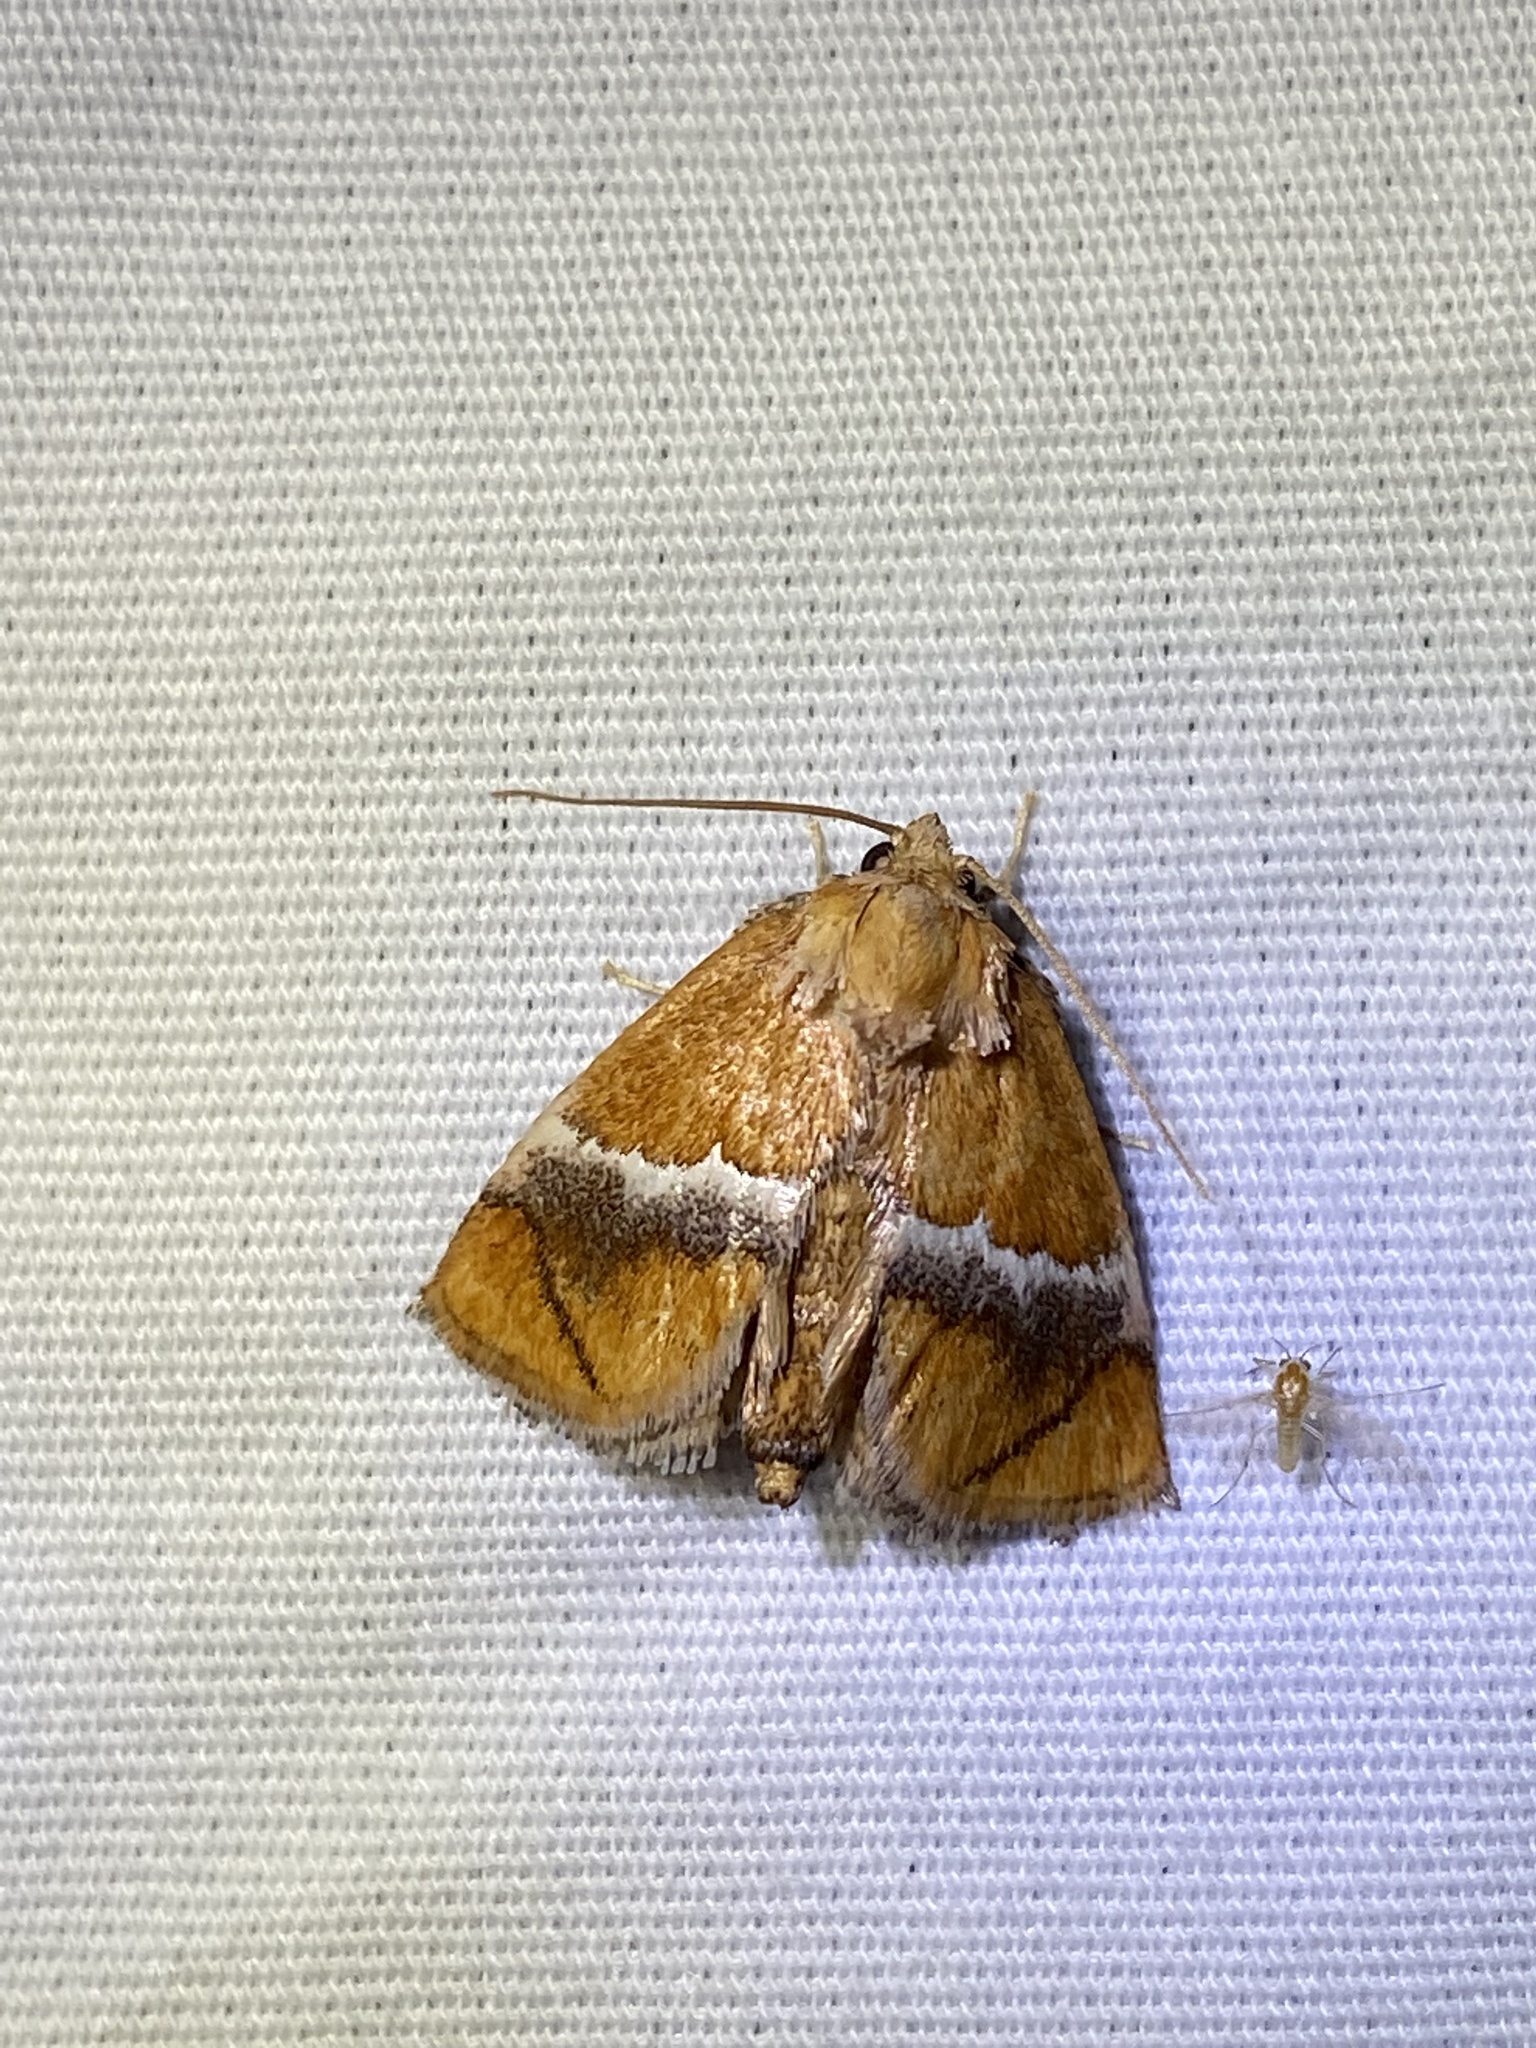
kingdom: Animalia
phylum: Arthropoda
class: Insecta
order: Lepidoptera
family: Limacodidae
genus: Lithacodes
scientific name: Lithacodes fasciola
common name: Yellow-shouldered slug moth
